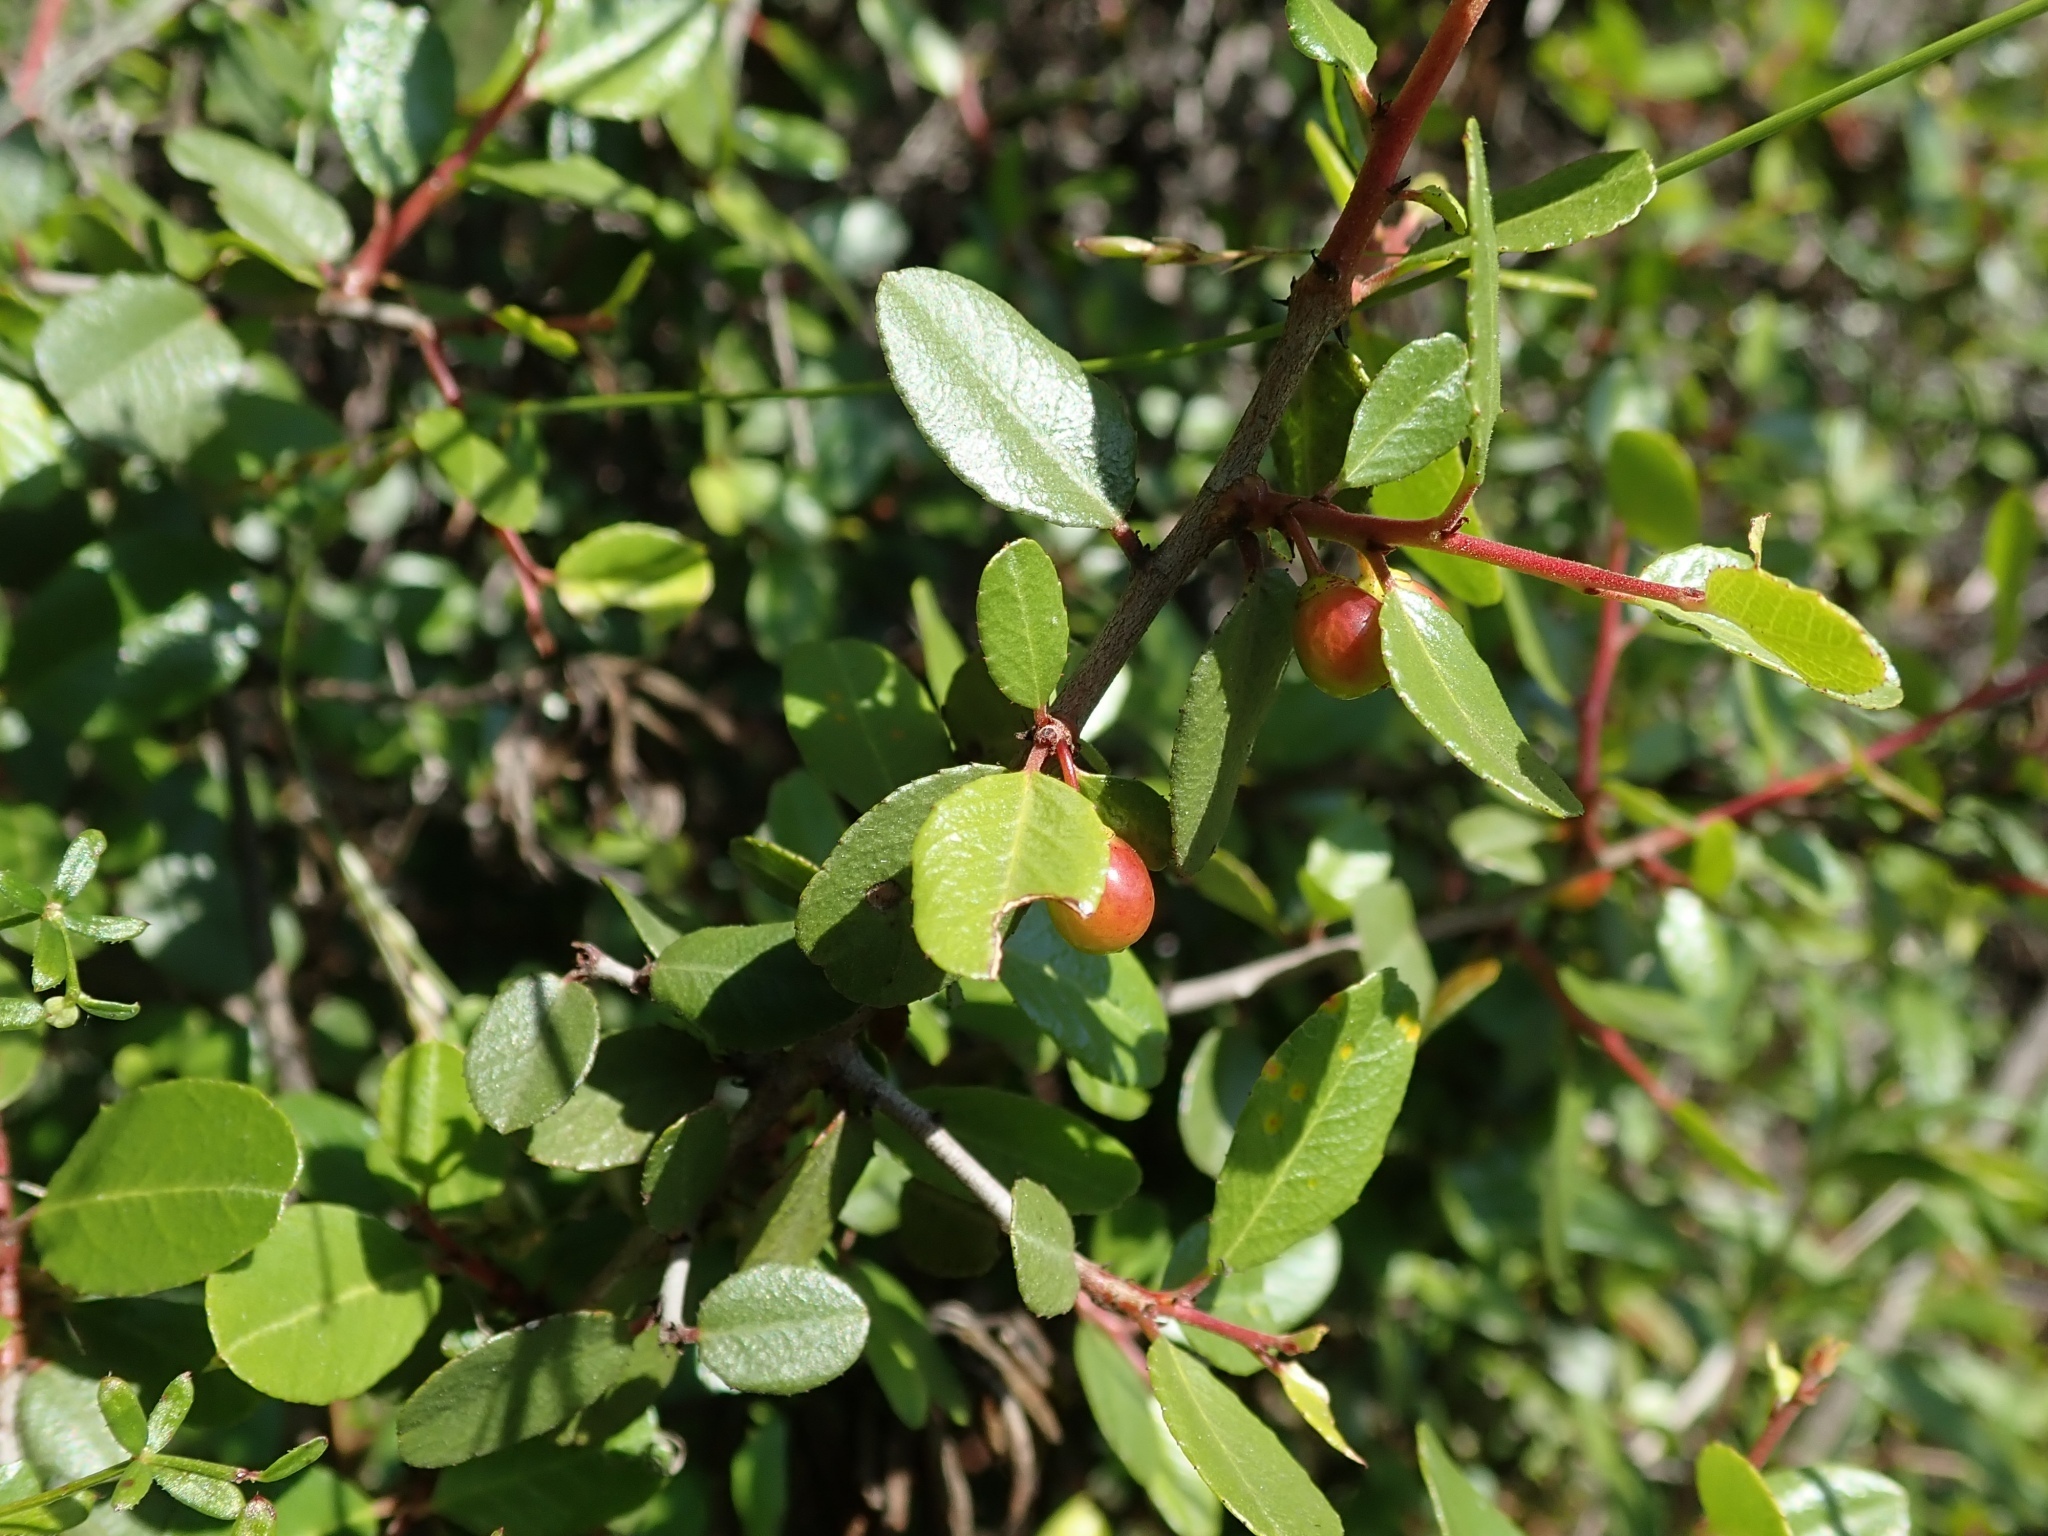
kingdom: Plantae
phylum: Tracheophyta
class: Magnoliopsida
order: Rosales
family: Rhamnaceae
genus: Endotropis
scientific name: Endotropis crocea
